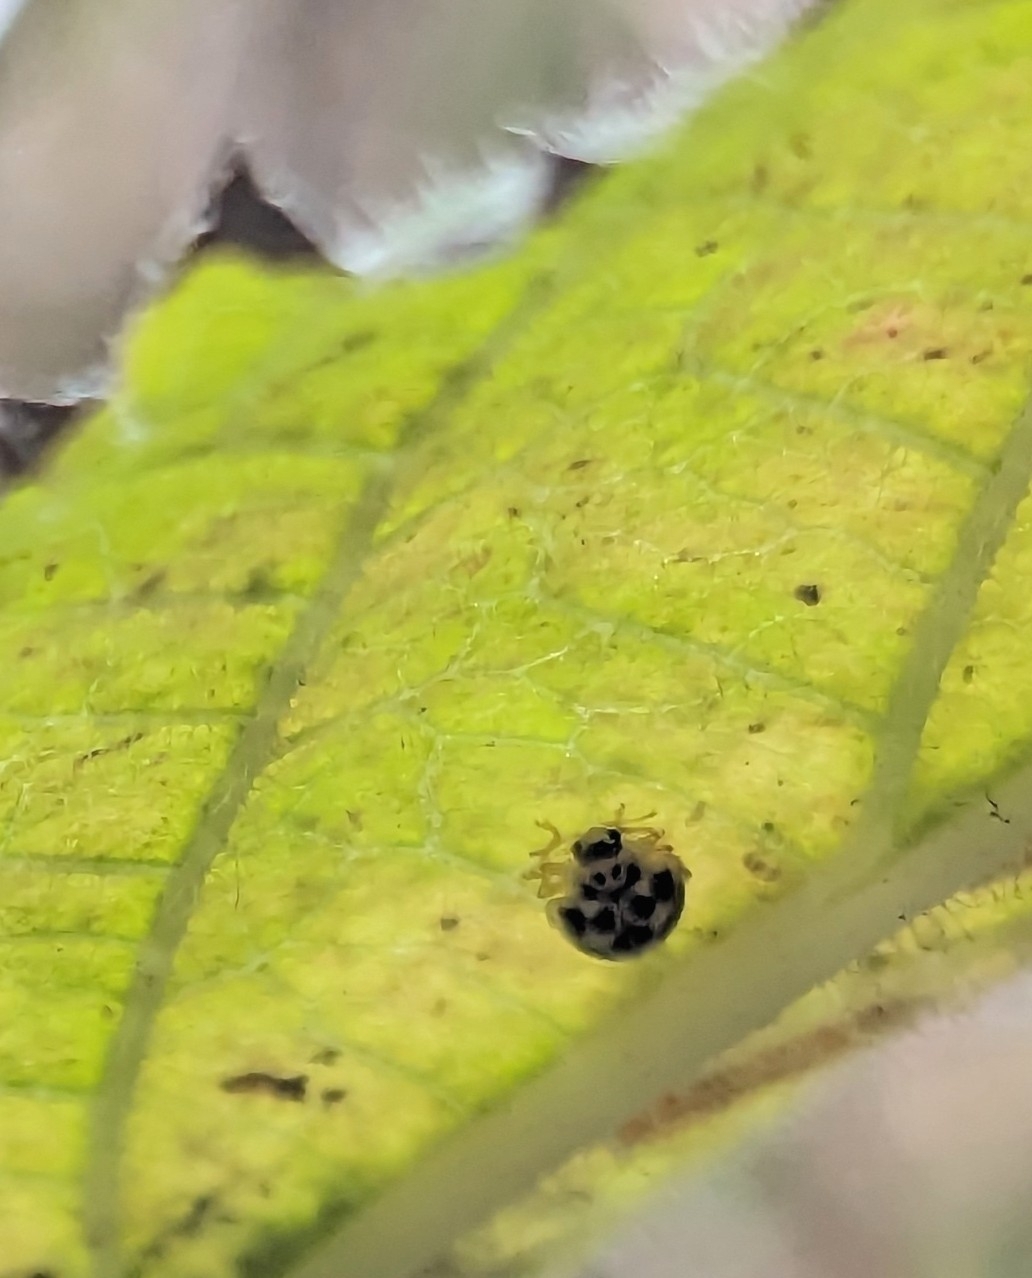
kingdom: Animalia
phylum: Arthropoda
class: Insecta
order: Coleoptera
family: Coccinellidae
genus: Psyllobora
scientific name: Psyllobora vigintimaculata
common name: Ladybird beetle
